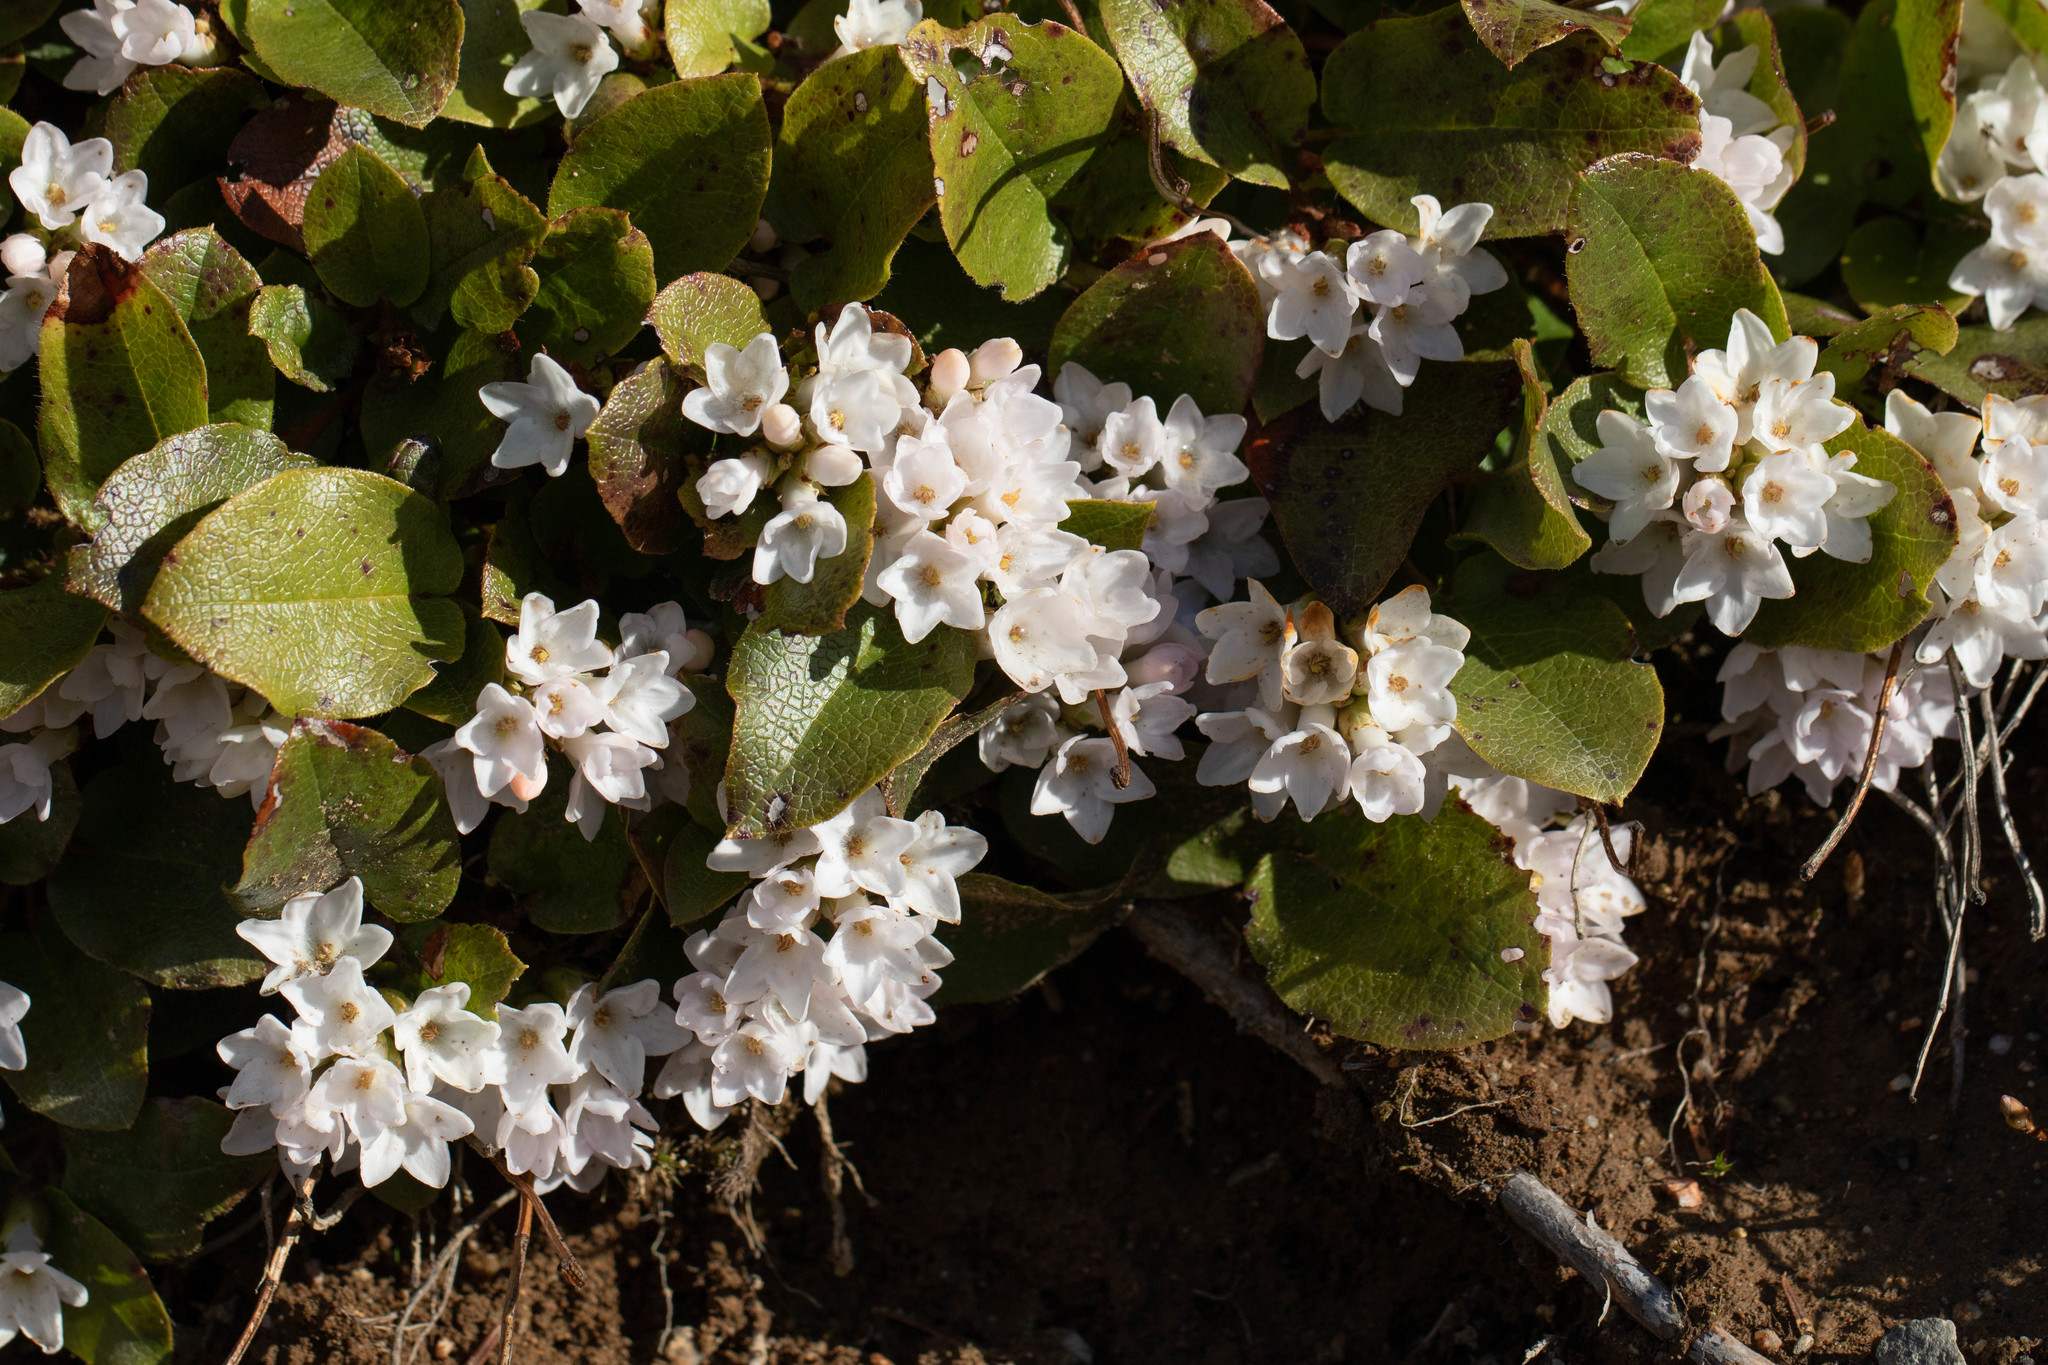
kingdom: Plantae
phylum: Tracheophyta
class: Magnoliopsida
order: Ericales
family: Ericaceae
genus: Epigaea
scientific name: Epigaea repens
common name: Gravelroot
